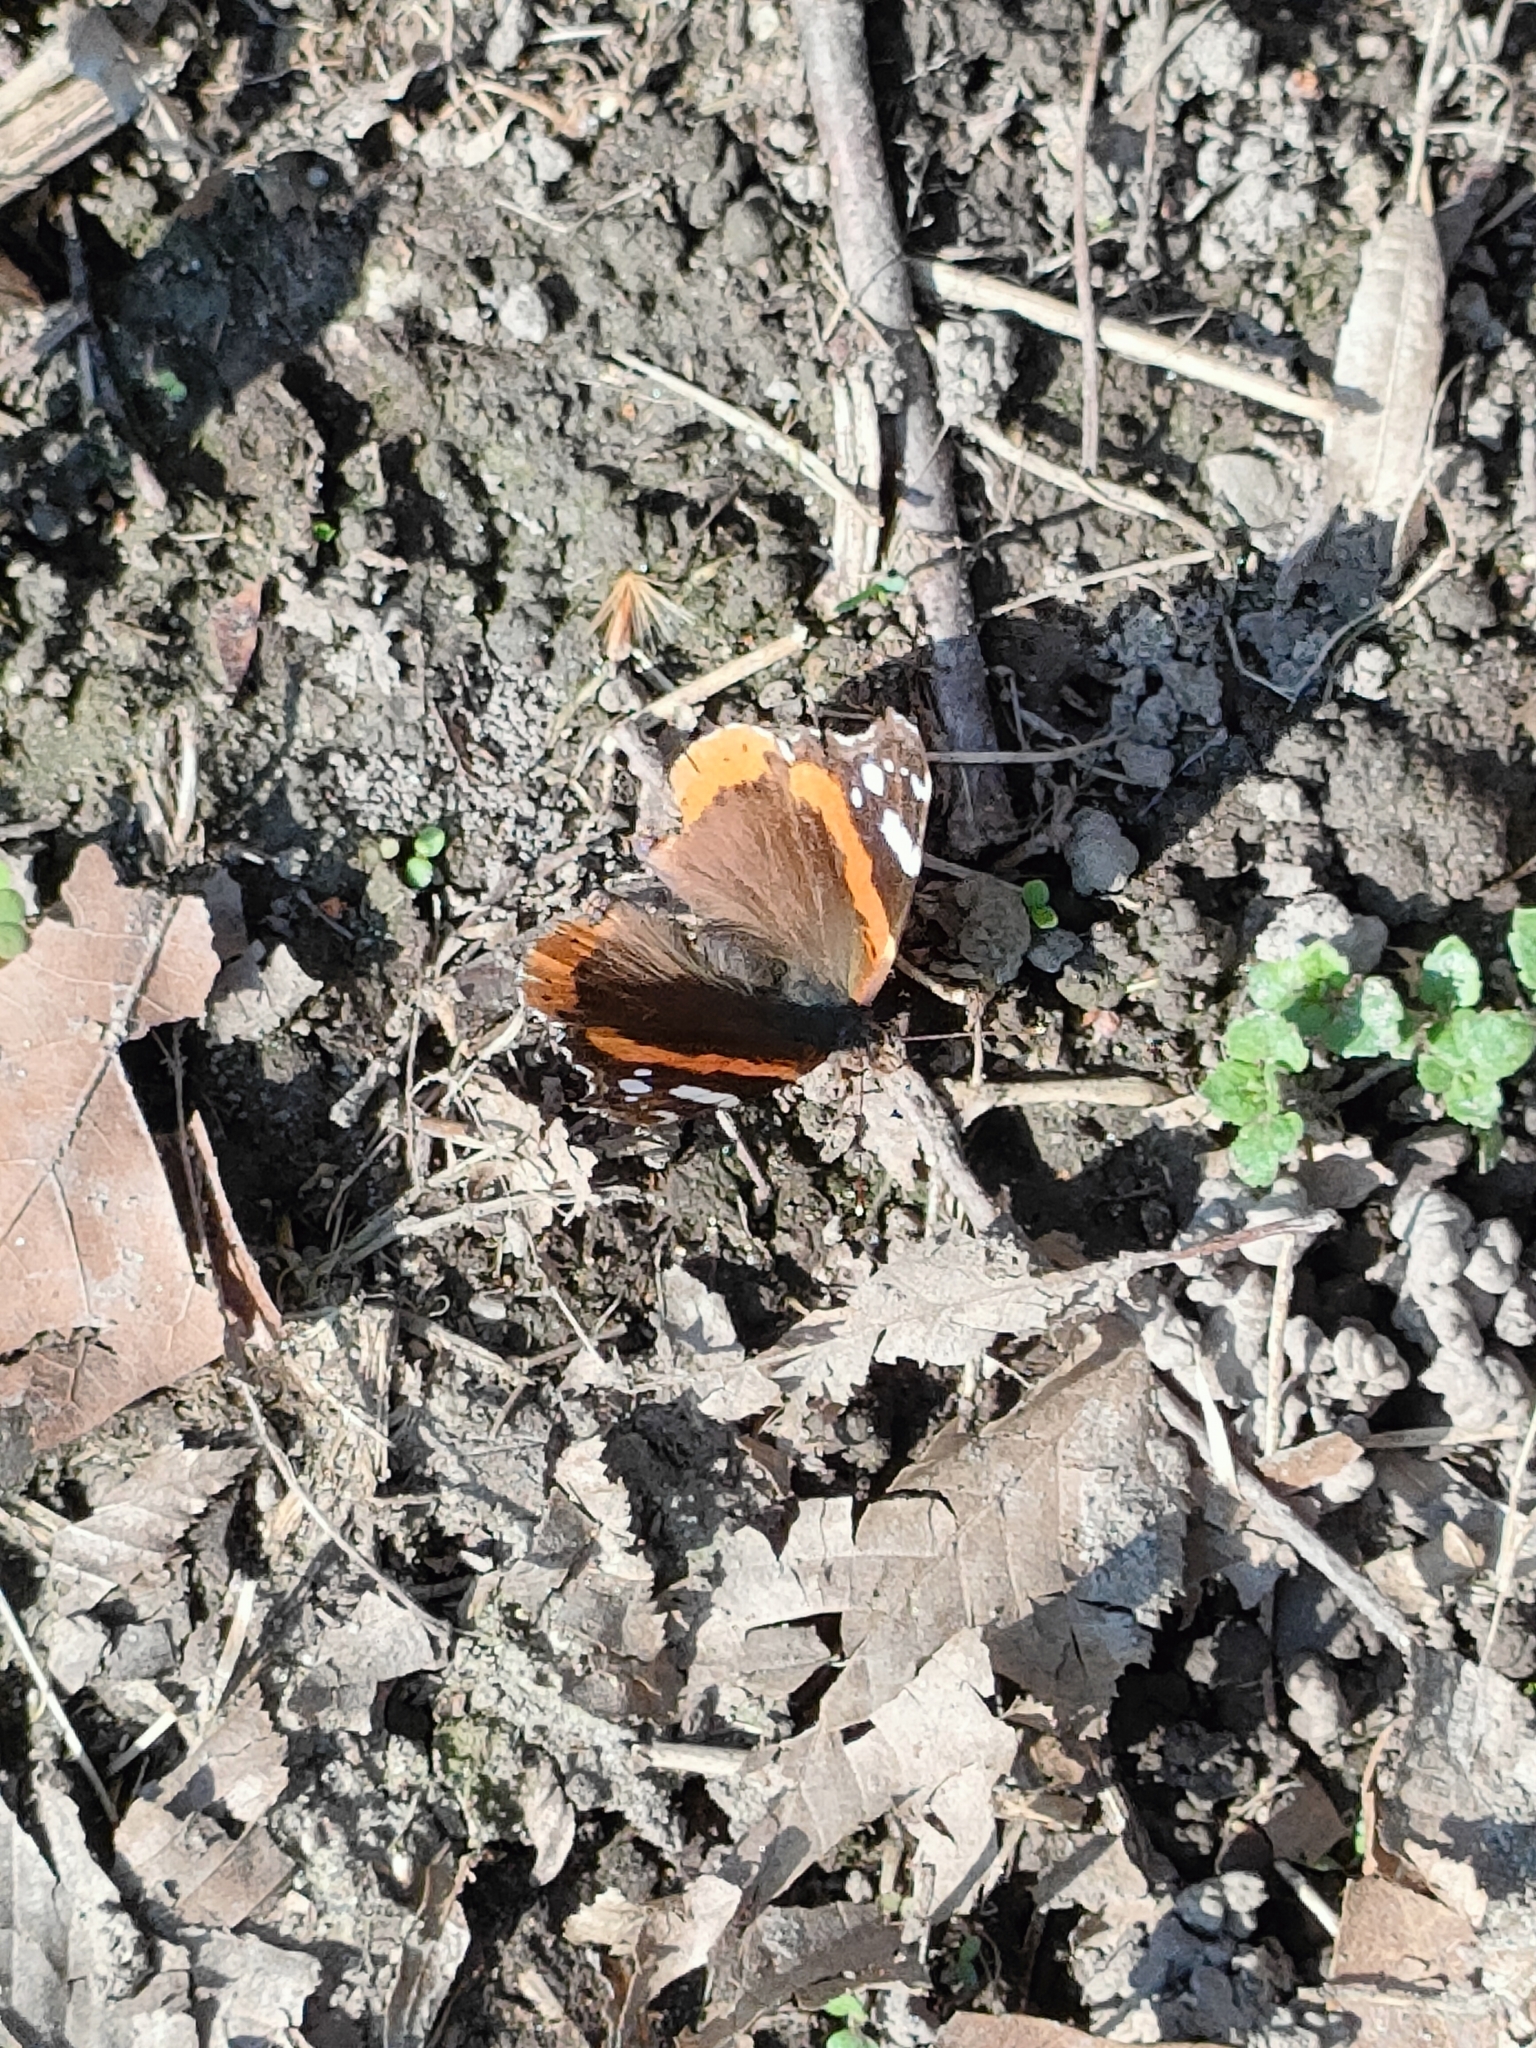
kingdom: Animalia
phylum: Arthropoda
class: Insecta
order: Lepidoptera
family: Nymphalidae
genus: Vanessa
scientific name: Vanessa atalanta
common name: Red admiral
